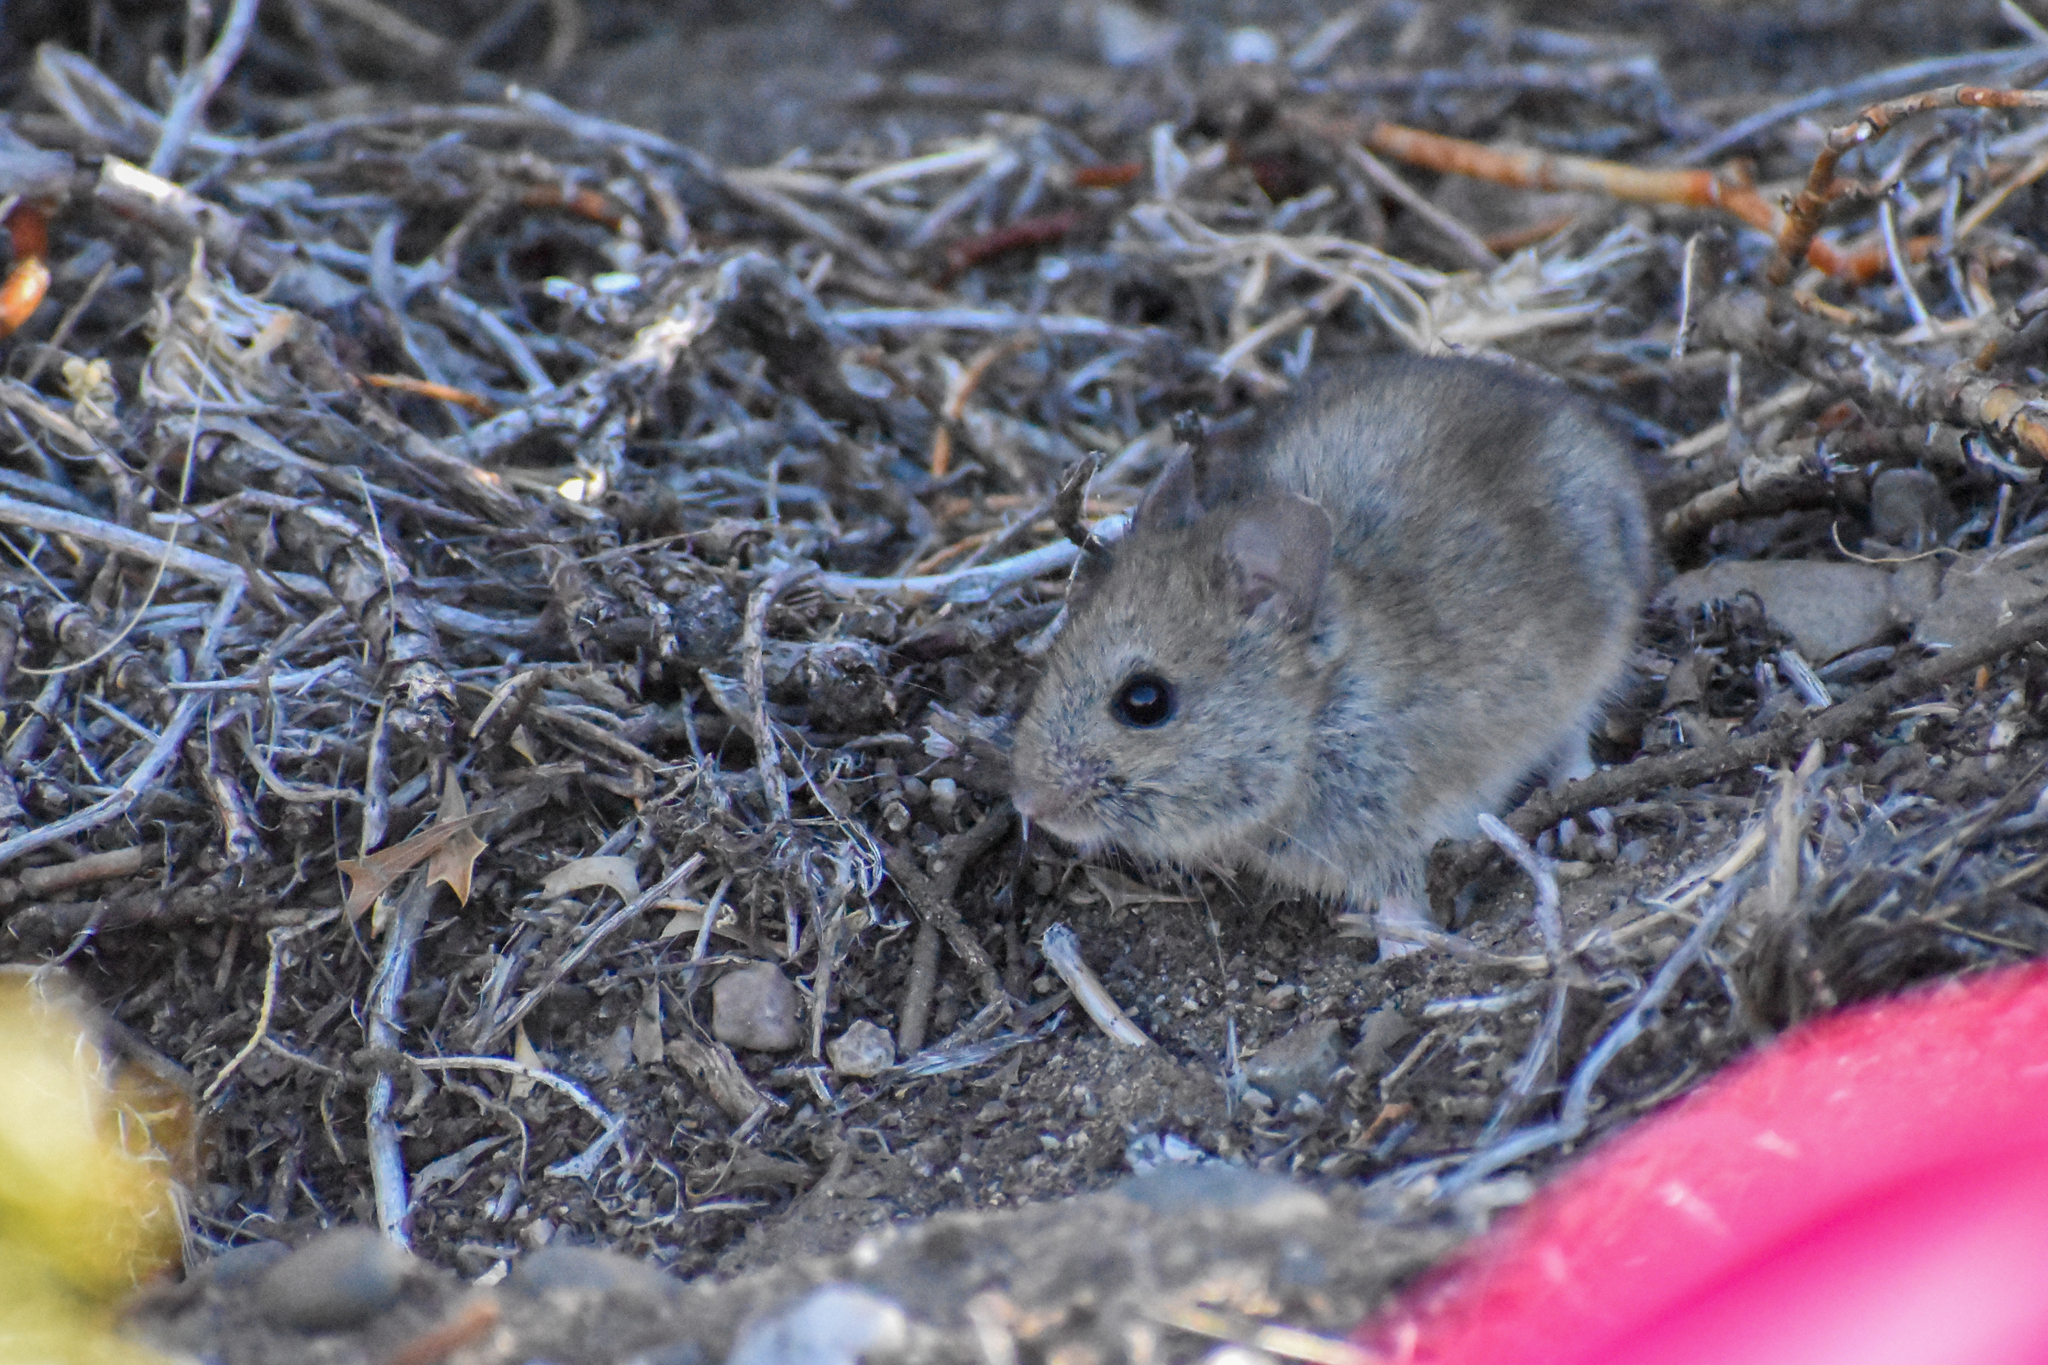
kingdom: Animalia
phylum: Chordata
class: Mammalia
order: Rodentia
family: Cricetidae
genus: Reithrodon
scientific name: Reithrodon auritus
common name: Bunny rat
